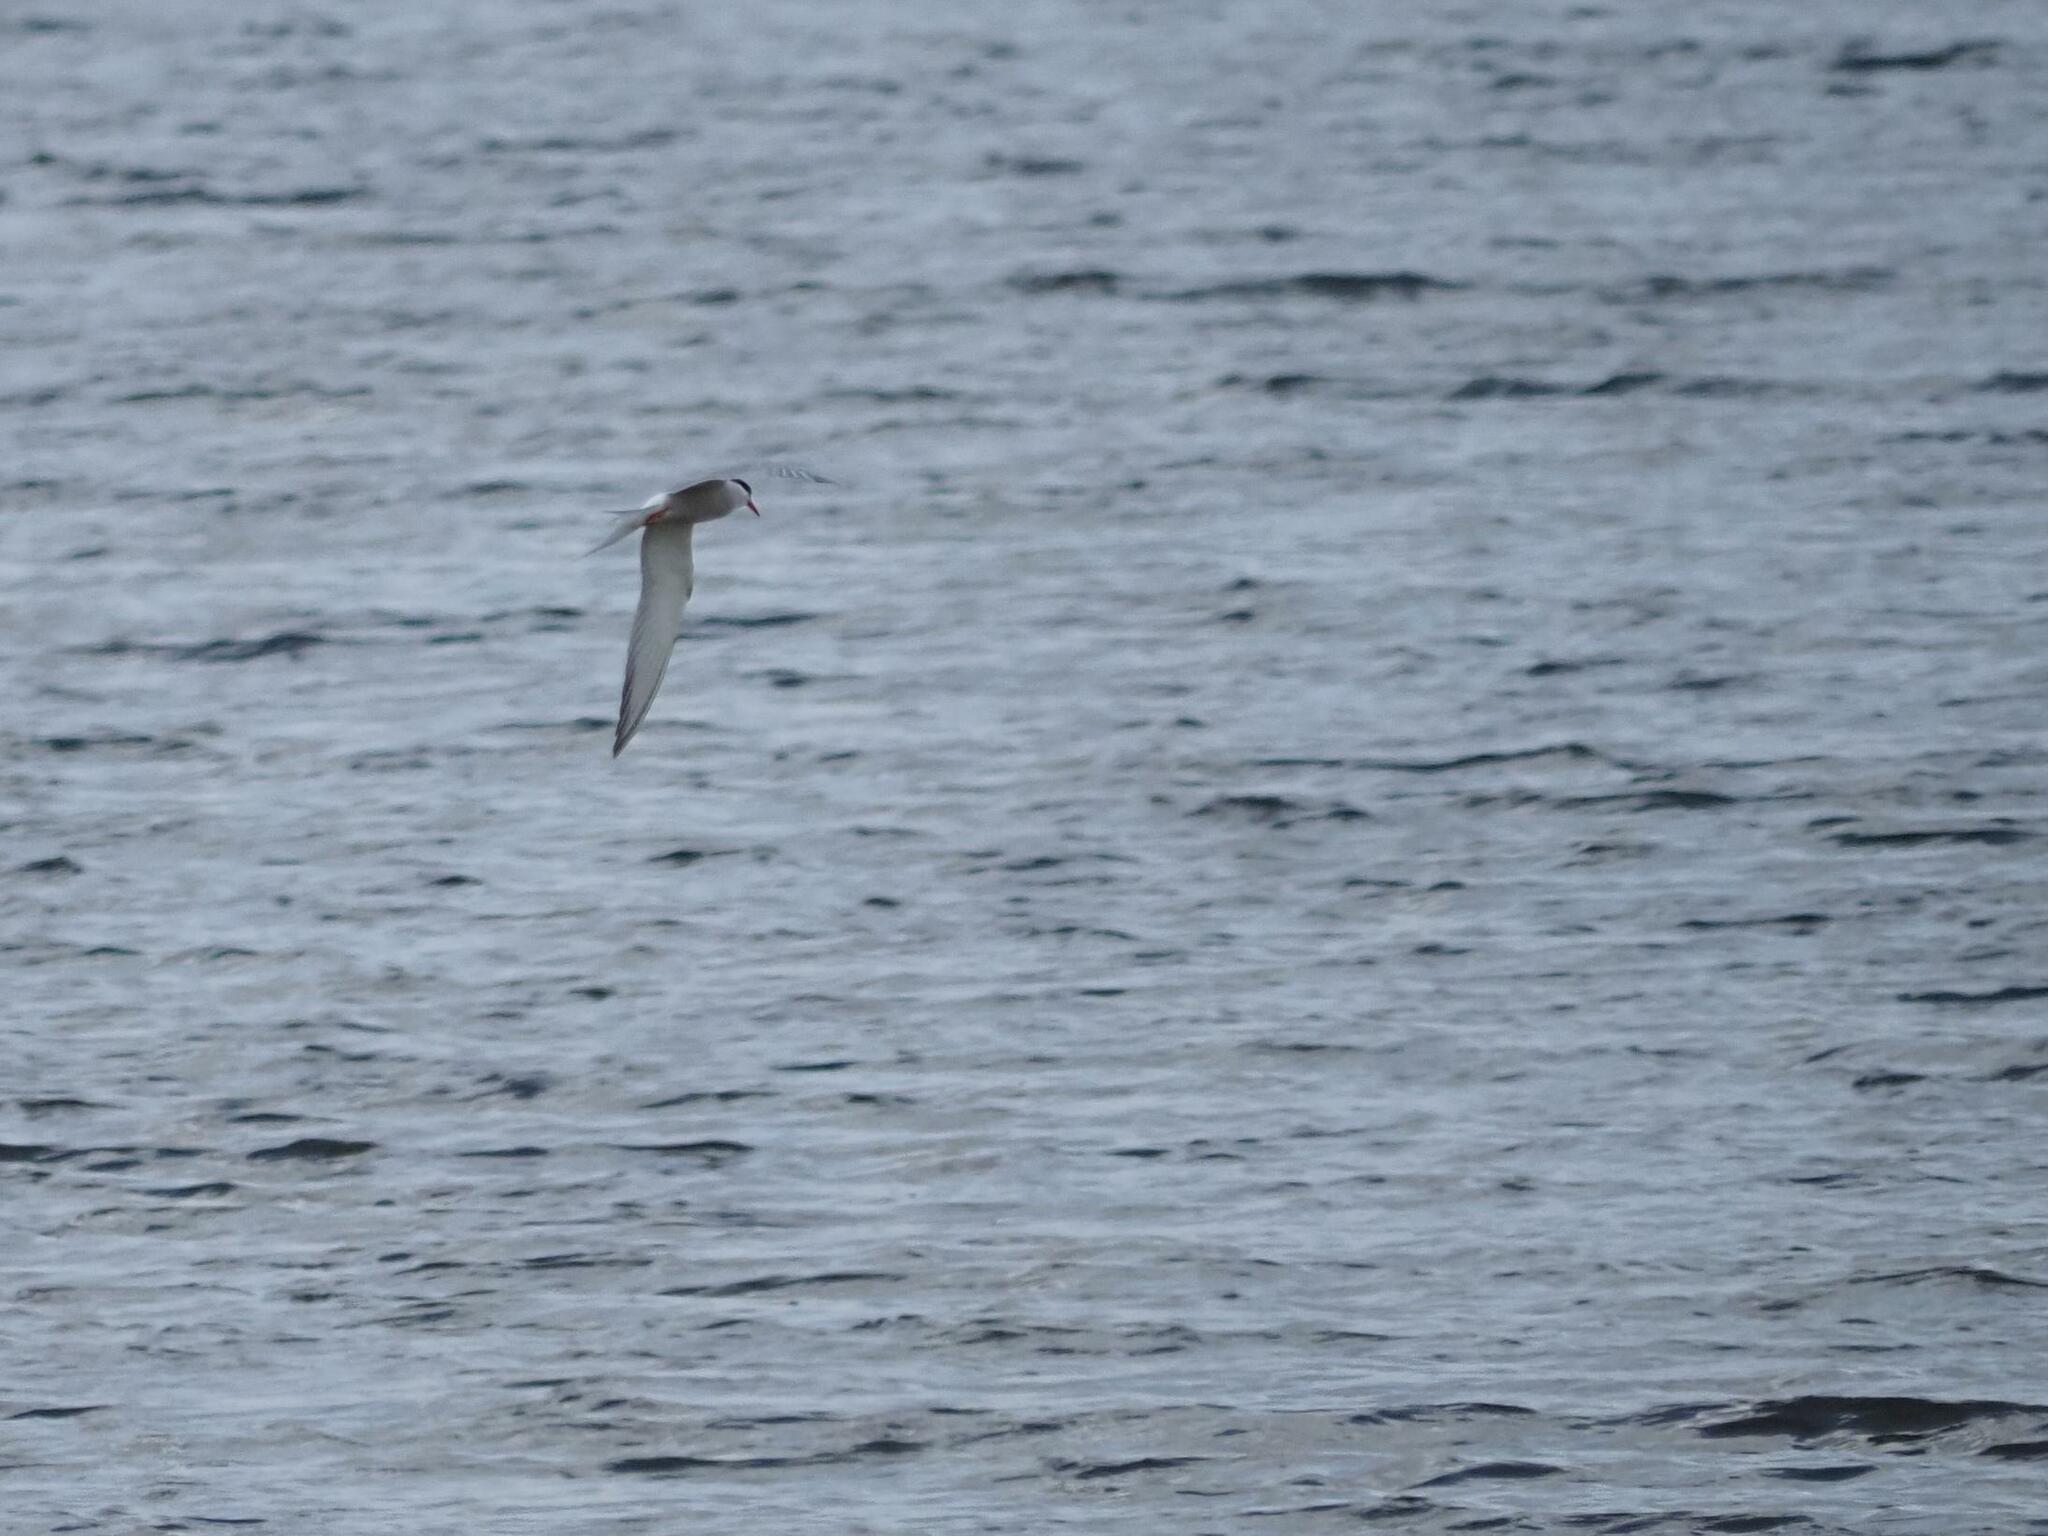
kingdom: Animalia
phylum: Chordata
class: Aves
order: Charadriiformes
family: Laridae
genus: Sterna
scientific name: Sterna hirundo
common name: Common tern
